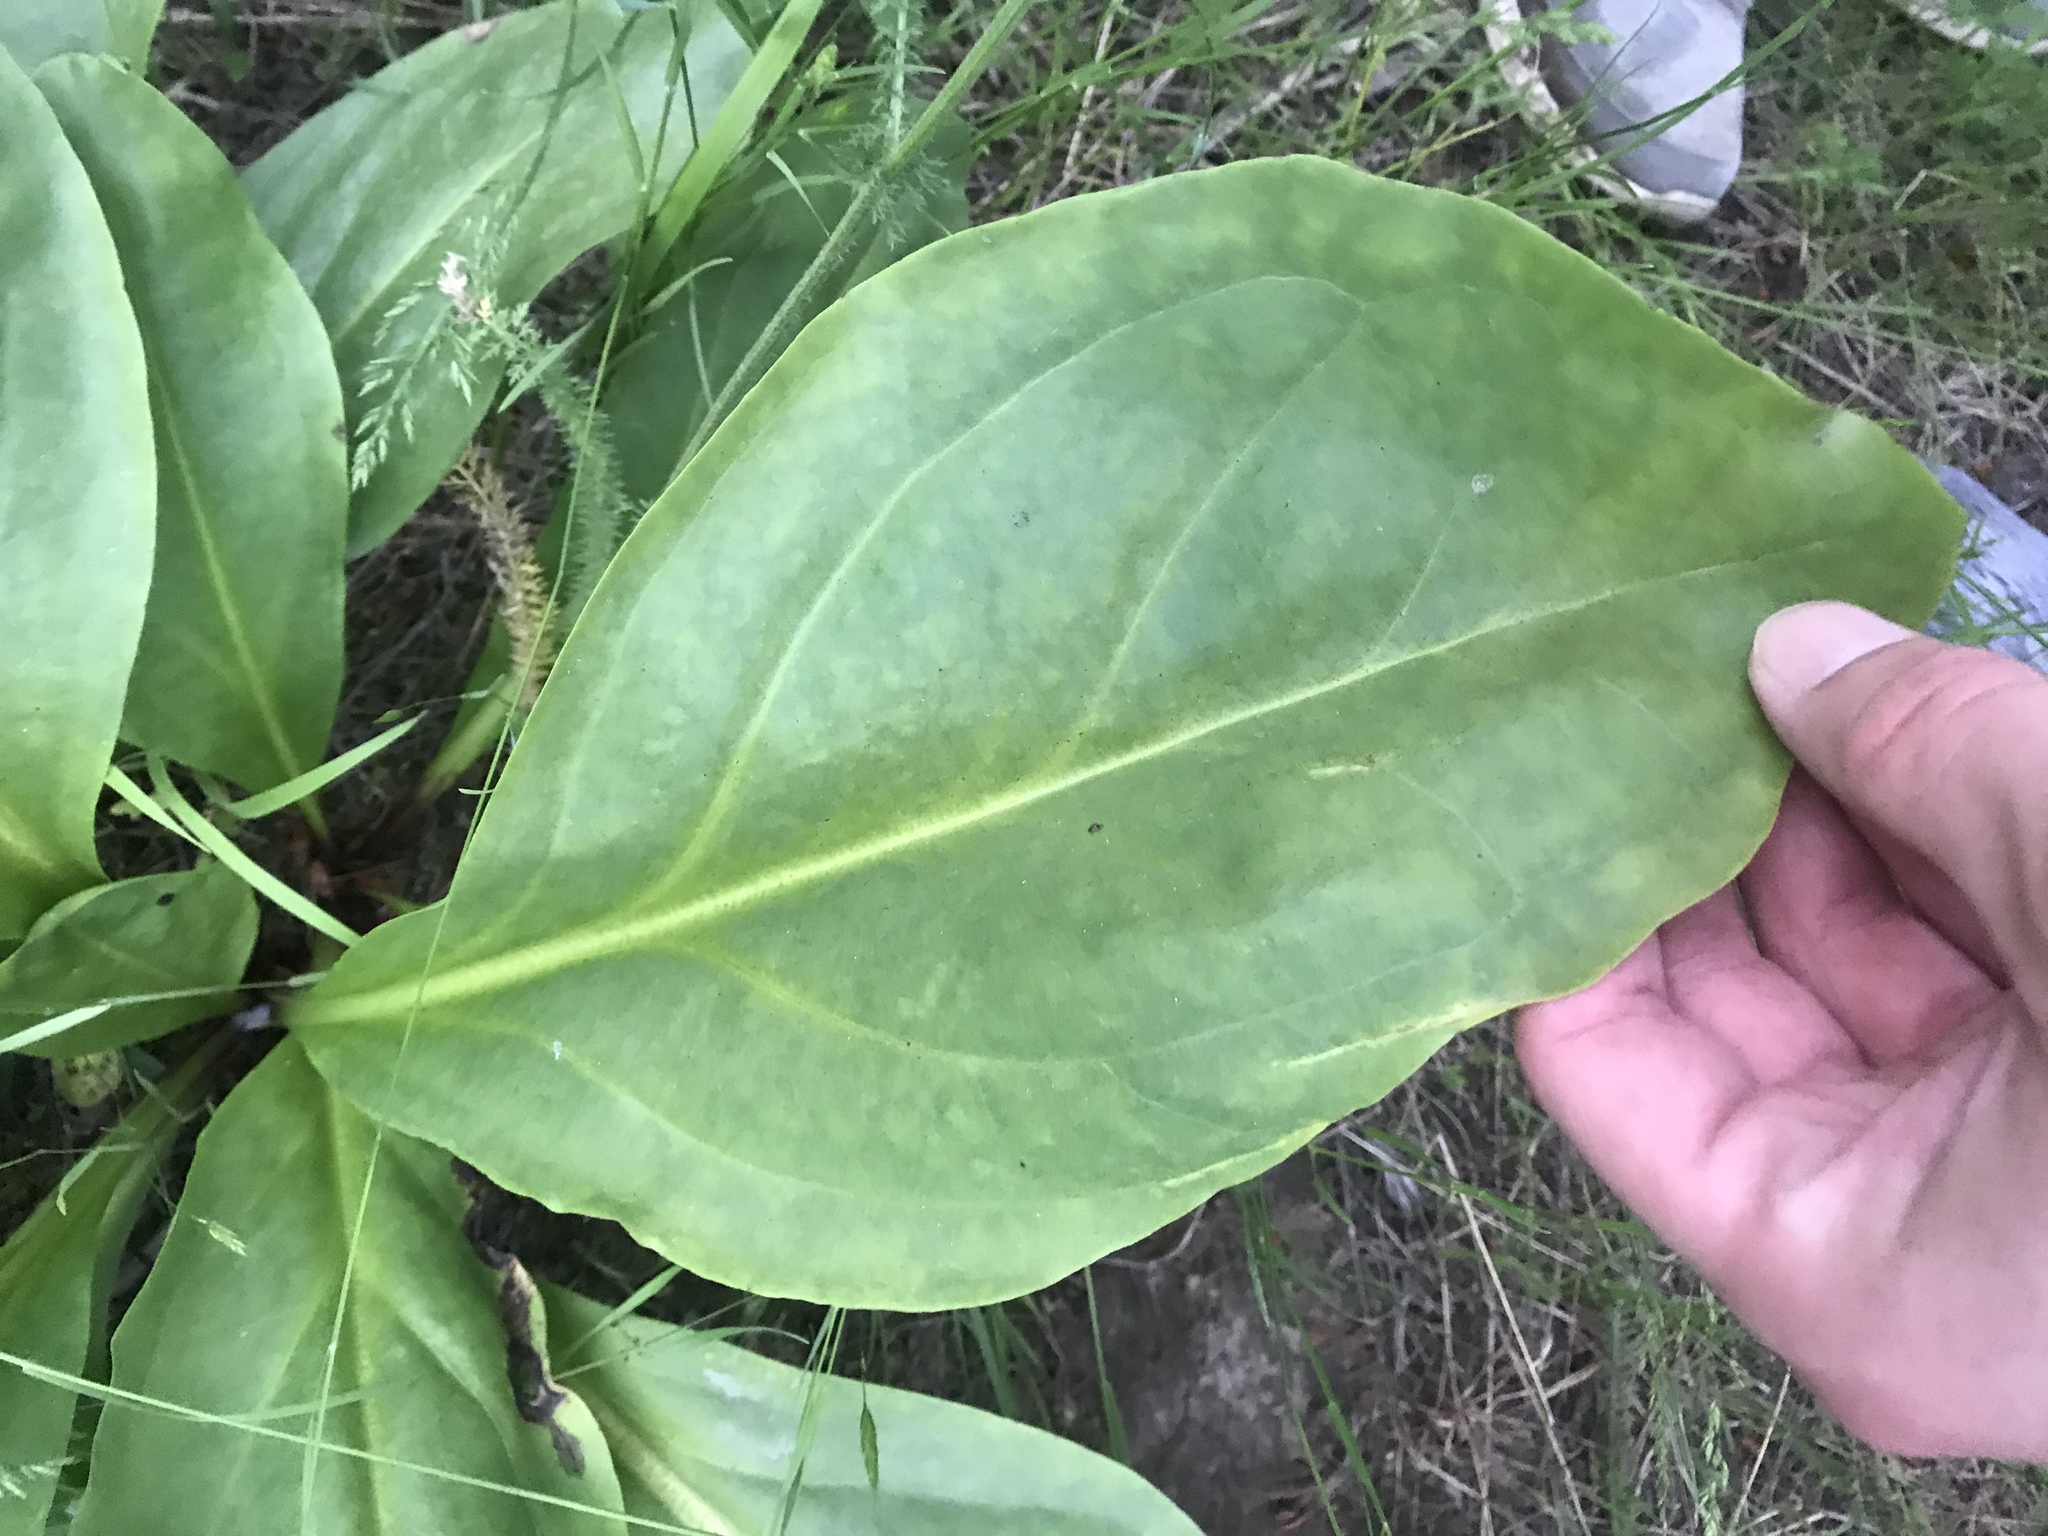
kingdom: Plantae
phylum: Tracheophyta
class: Magnoliopsida
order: Gentianales
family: Gentianaceae
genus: Frasera
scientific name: Frasera fastigiata
